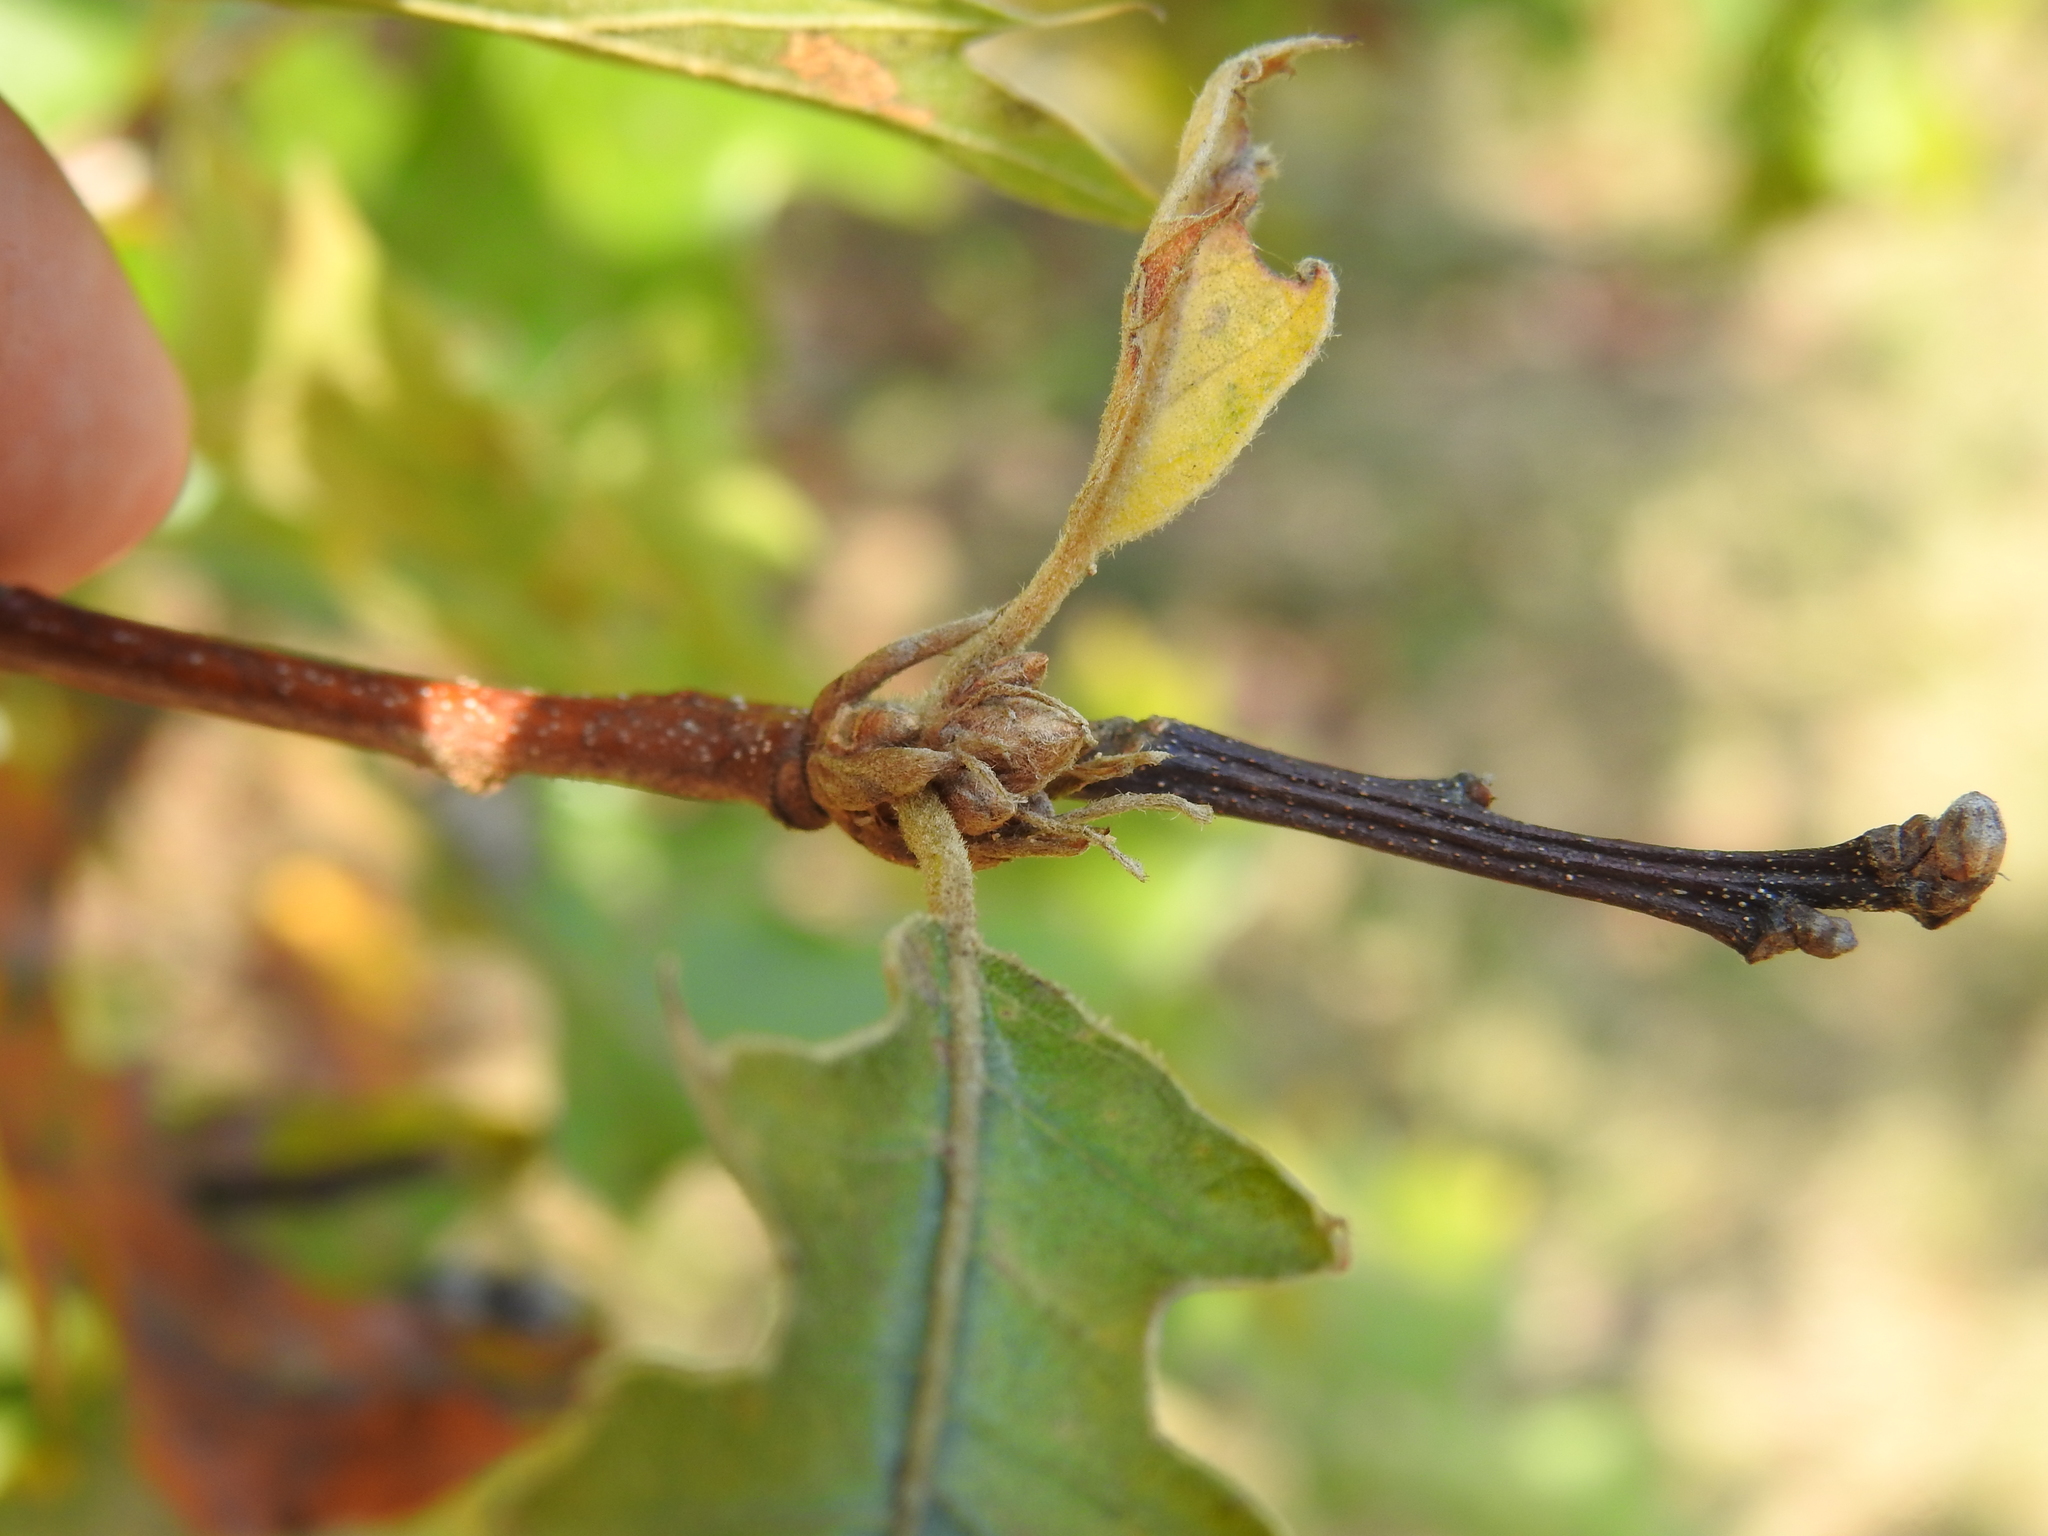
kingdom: Plantae
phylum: Tracheophyta
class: Magnoliopsida
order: Fagales
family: Fagaceae
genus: Quercus
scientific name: Quercus macrocarpa
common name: Bur oak
